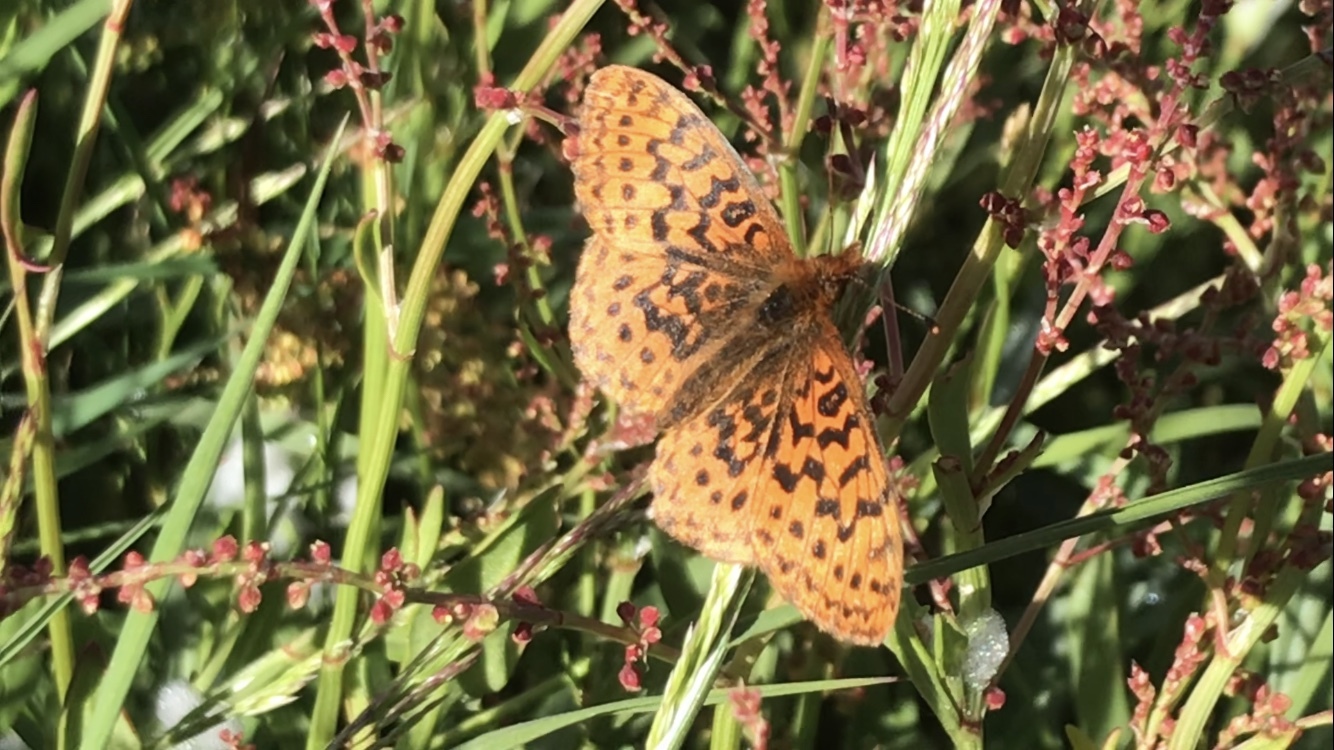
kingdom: Animalia
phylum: Arthropoda
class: Insecta
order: Lepidoptera
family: Nymphalidae
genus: Boloria
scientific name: Boloria epithore
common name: Pacific fritillary
